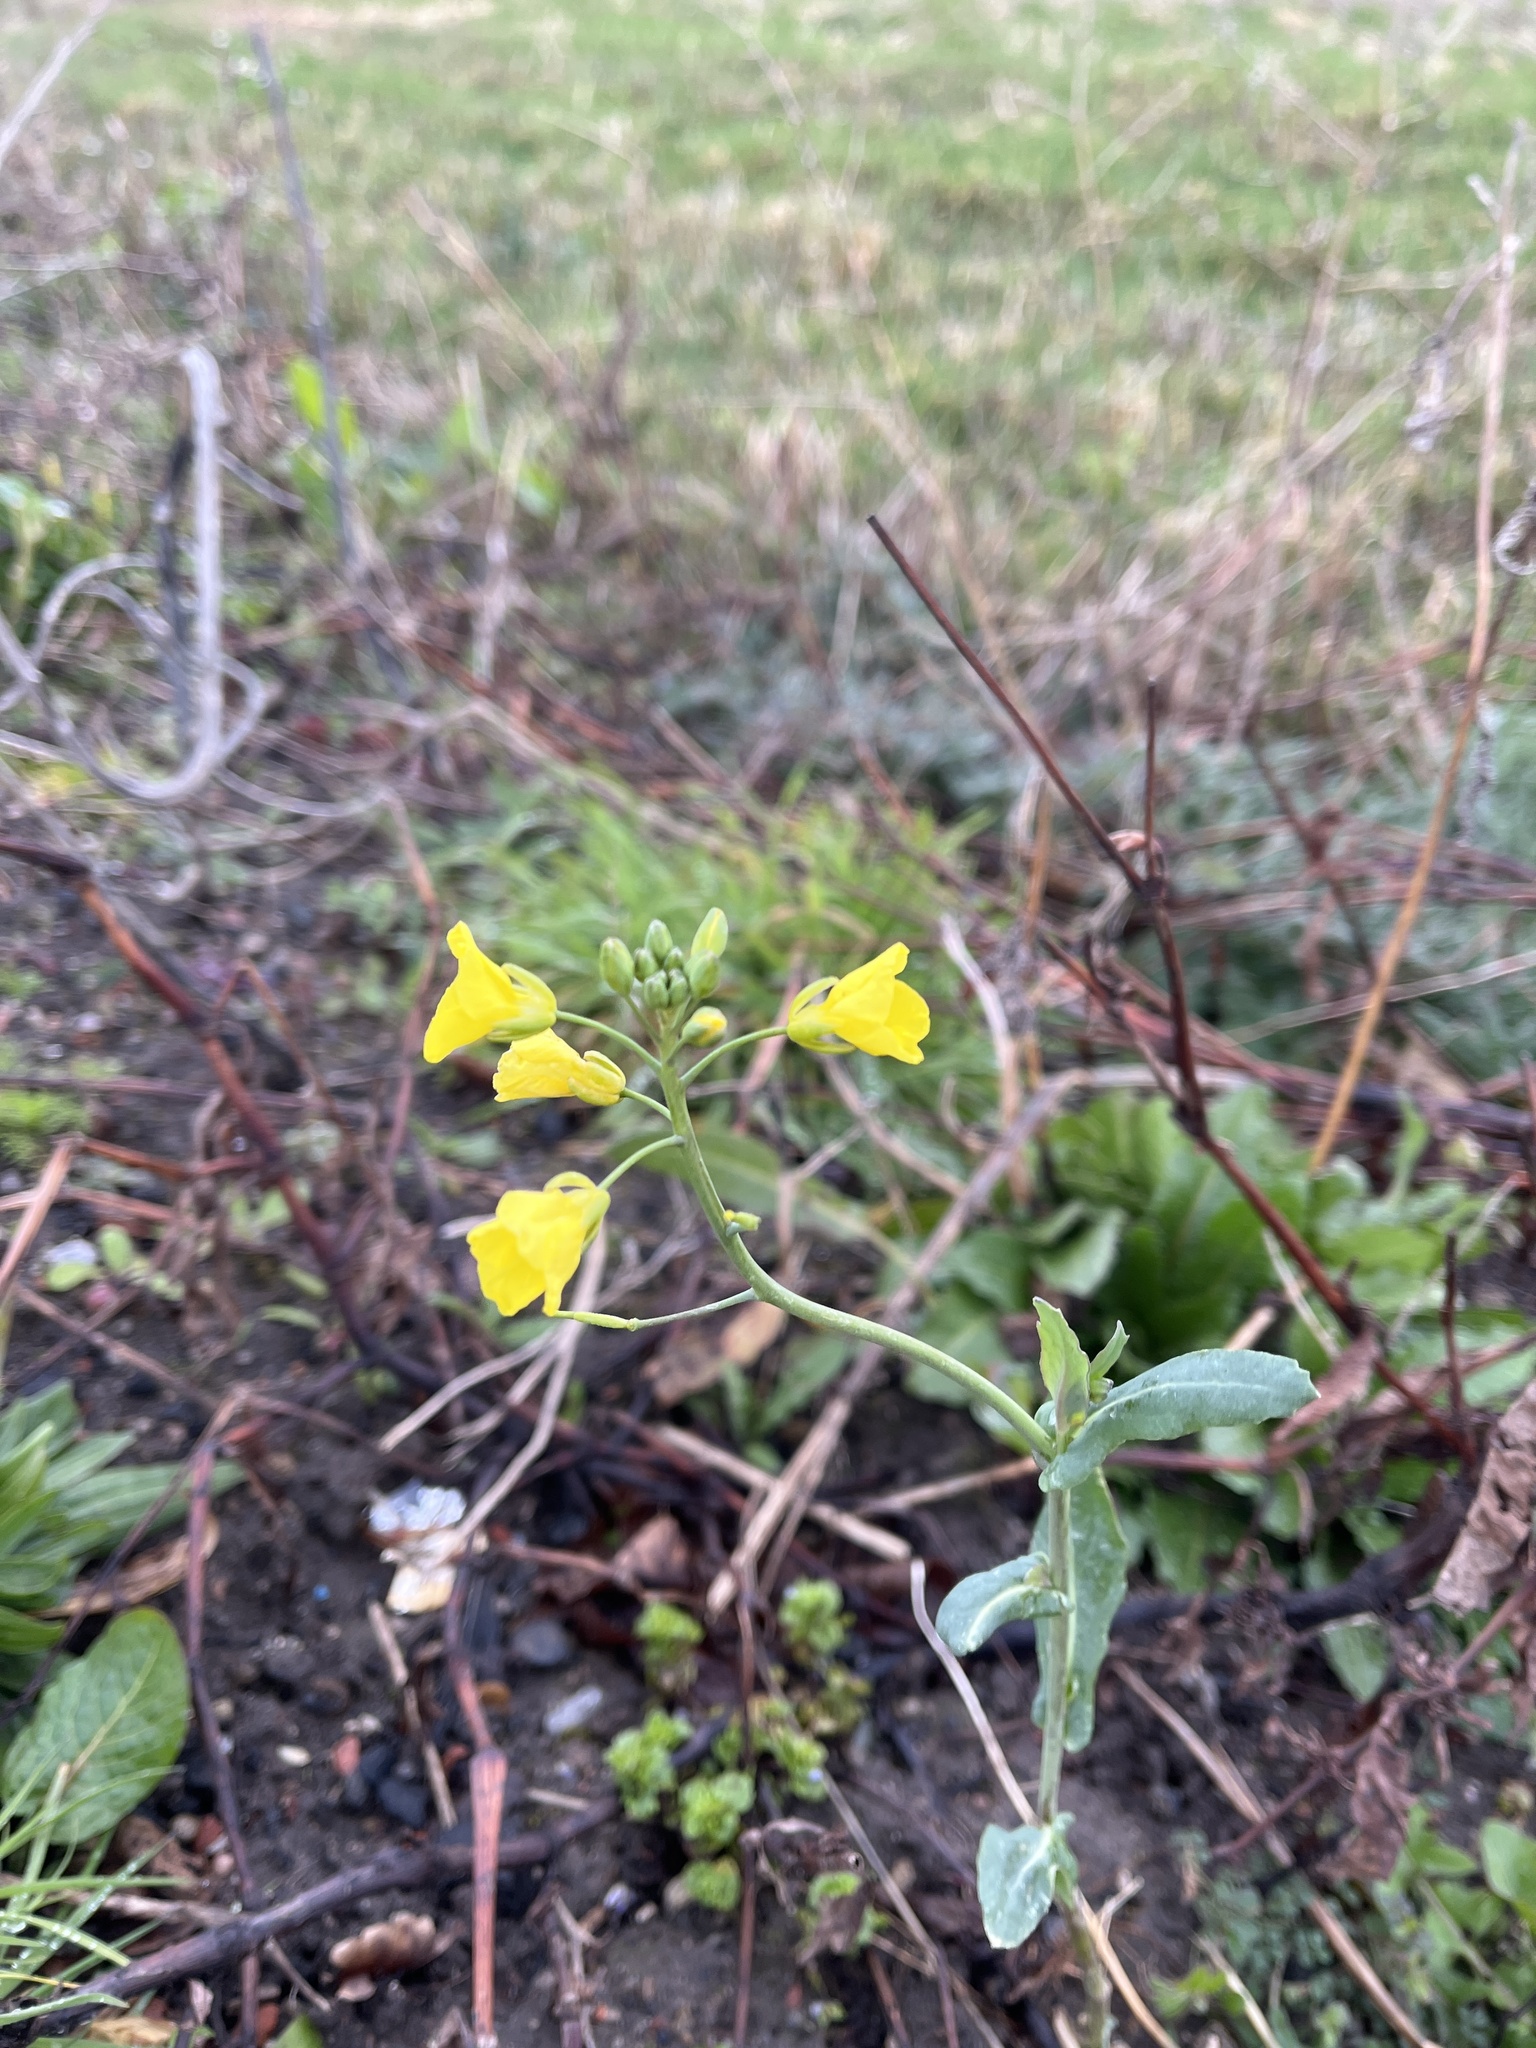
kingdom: Plantae
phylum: Tracheophyta
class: Magnoliopsida
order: Brassicales
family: Brassicaceae
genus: Brassica
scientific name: Brassica napus
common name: Rape
